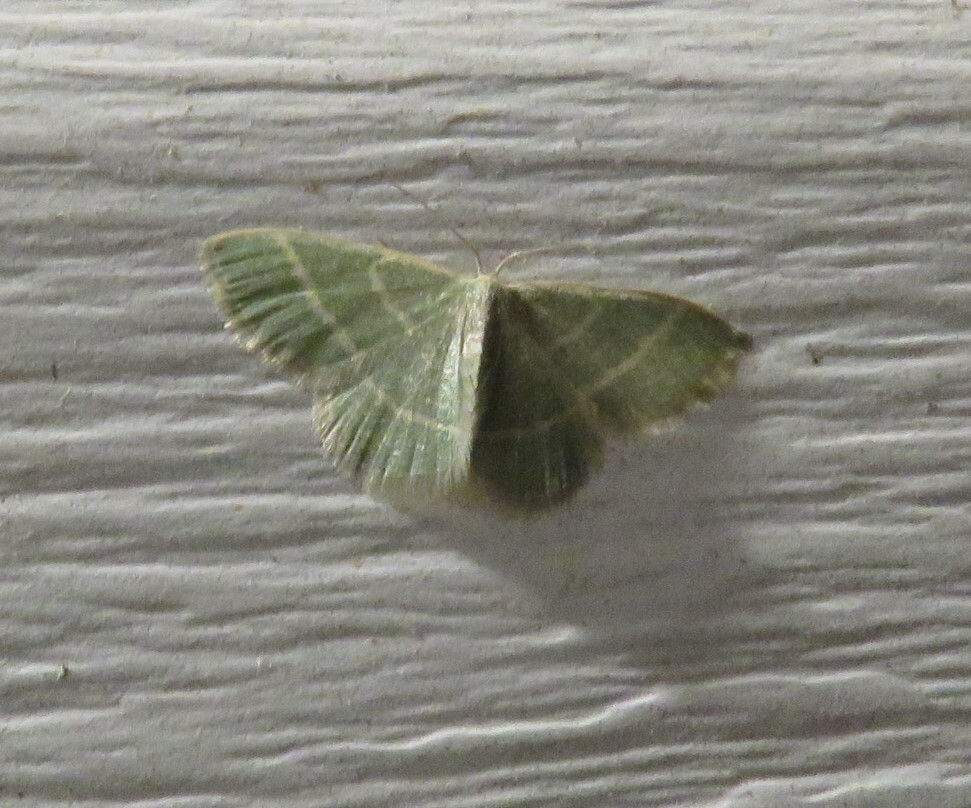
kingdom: Animalia
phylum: Arthropoda
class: Insecta
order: Lepidoptera
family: Geometridae
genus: Chlorochlamys
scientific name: Chlorochlamys chloroleucaria
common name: Blackberry looper
